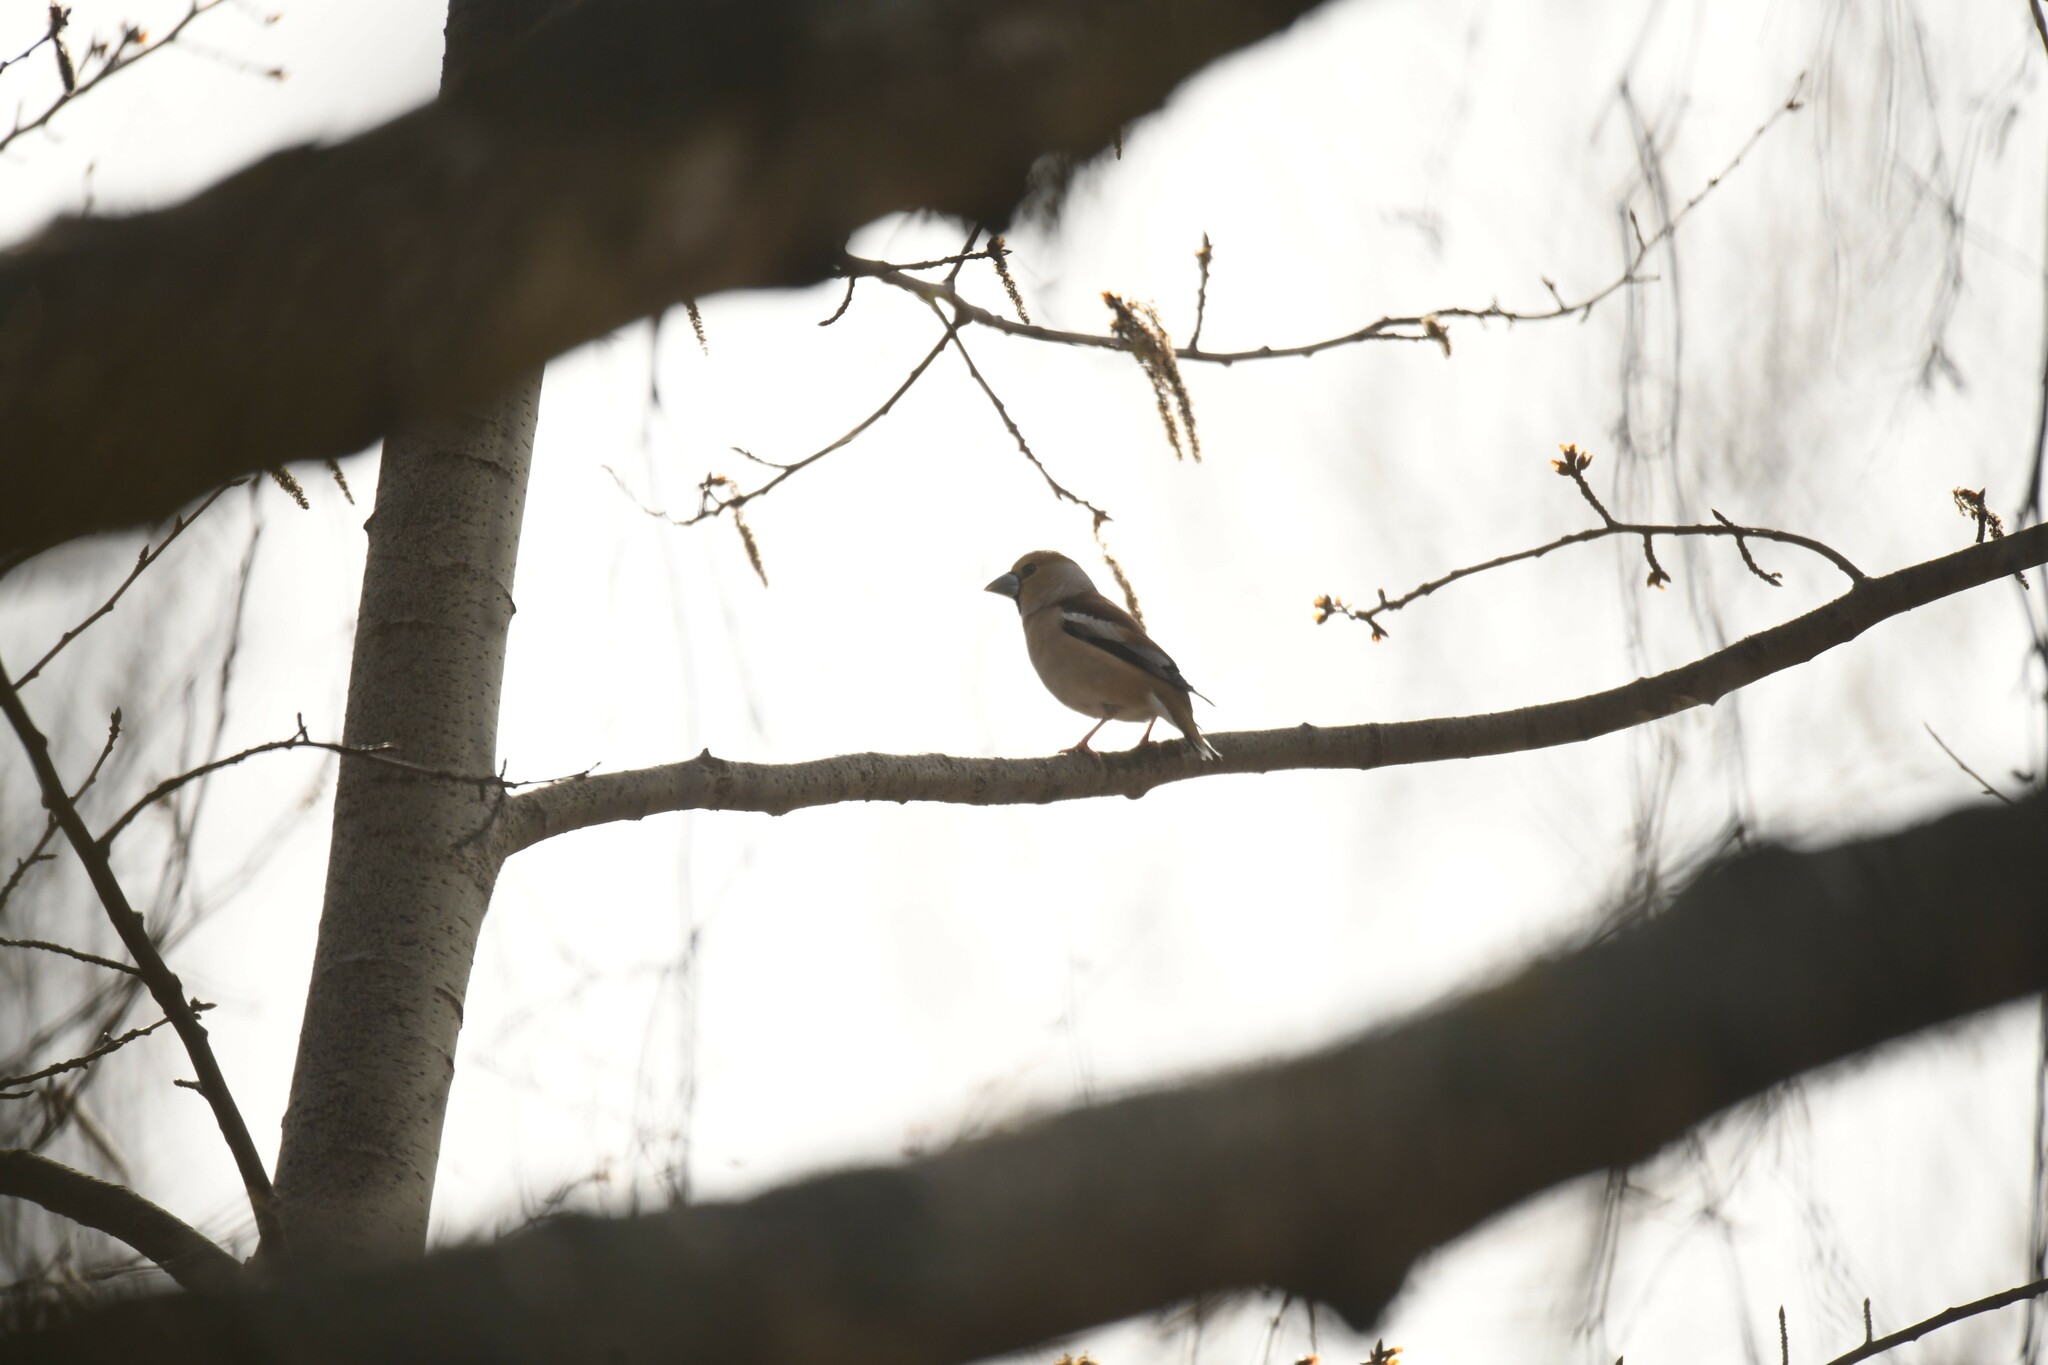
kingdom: Animalia
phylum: Chordata
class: Aves
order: Passeriformes
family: Fringillidae
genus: Coccothraustes
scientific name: Coccothraustes coccothraustes
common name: Hawfinch
